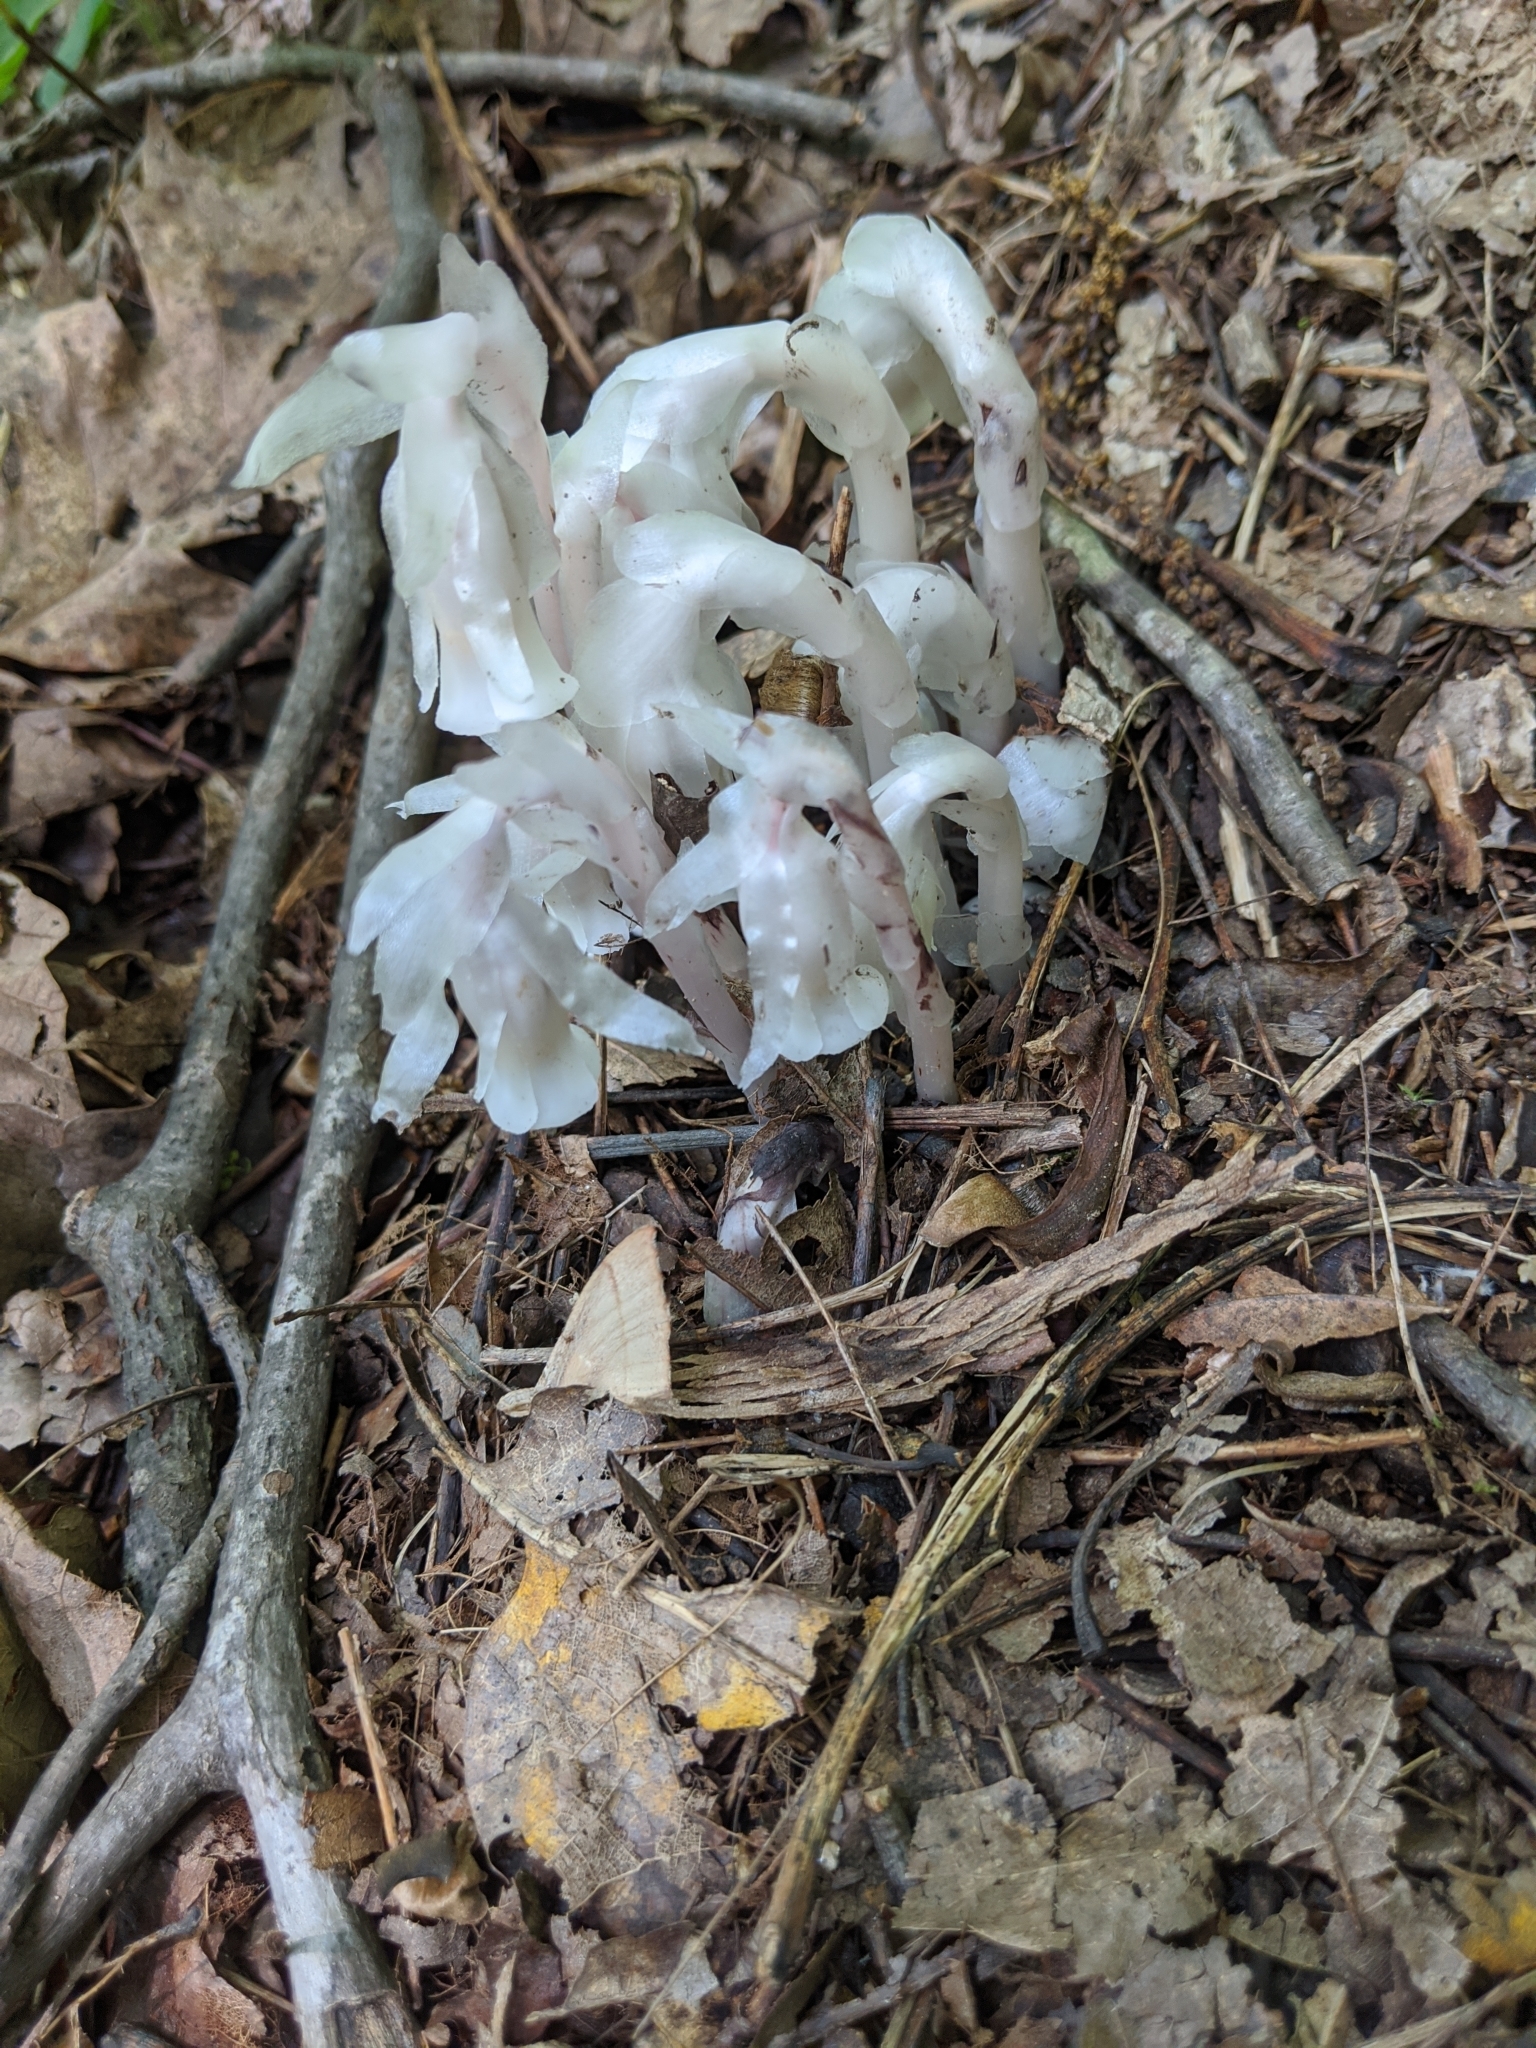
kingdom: Plantae
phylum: Tracheophyta
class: Magnoliopsida
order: Ericales
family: Ericaceae
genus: Monotropa
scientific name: Monotropa uniflora
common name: Convulsion root
